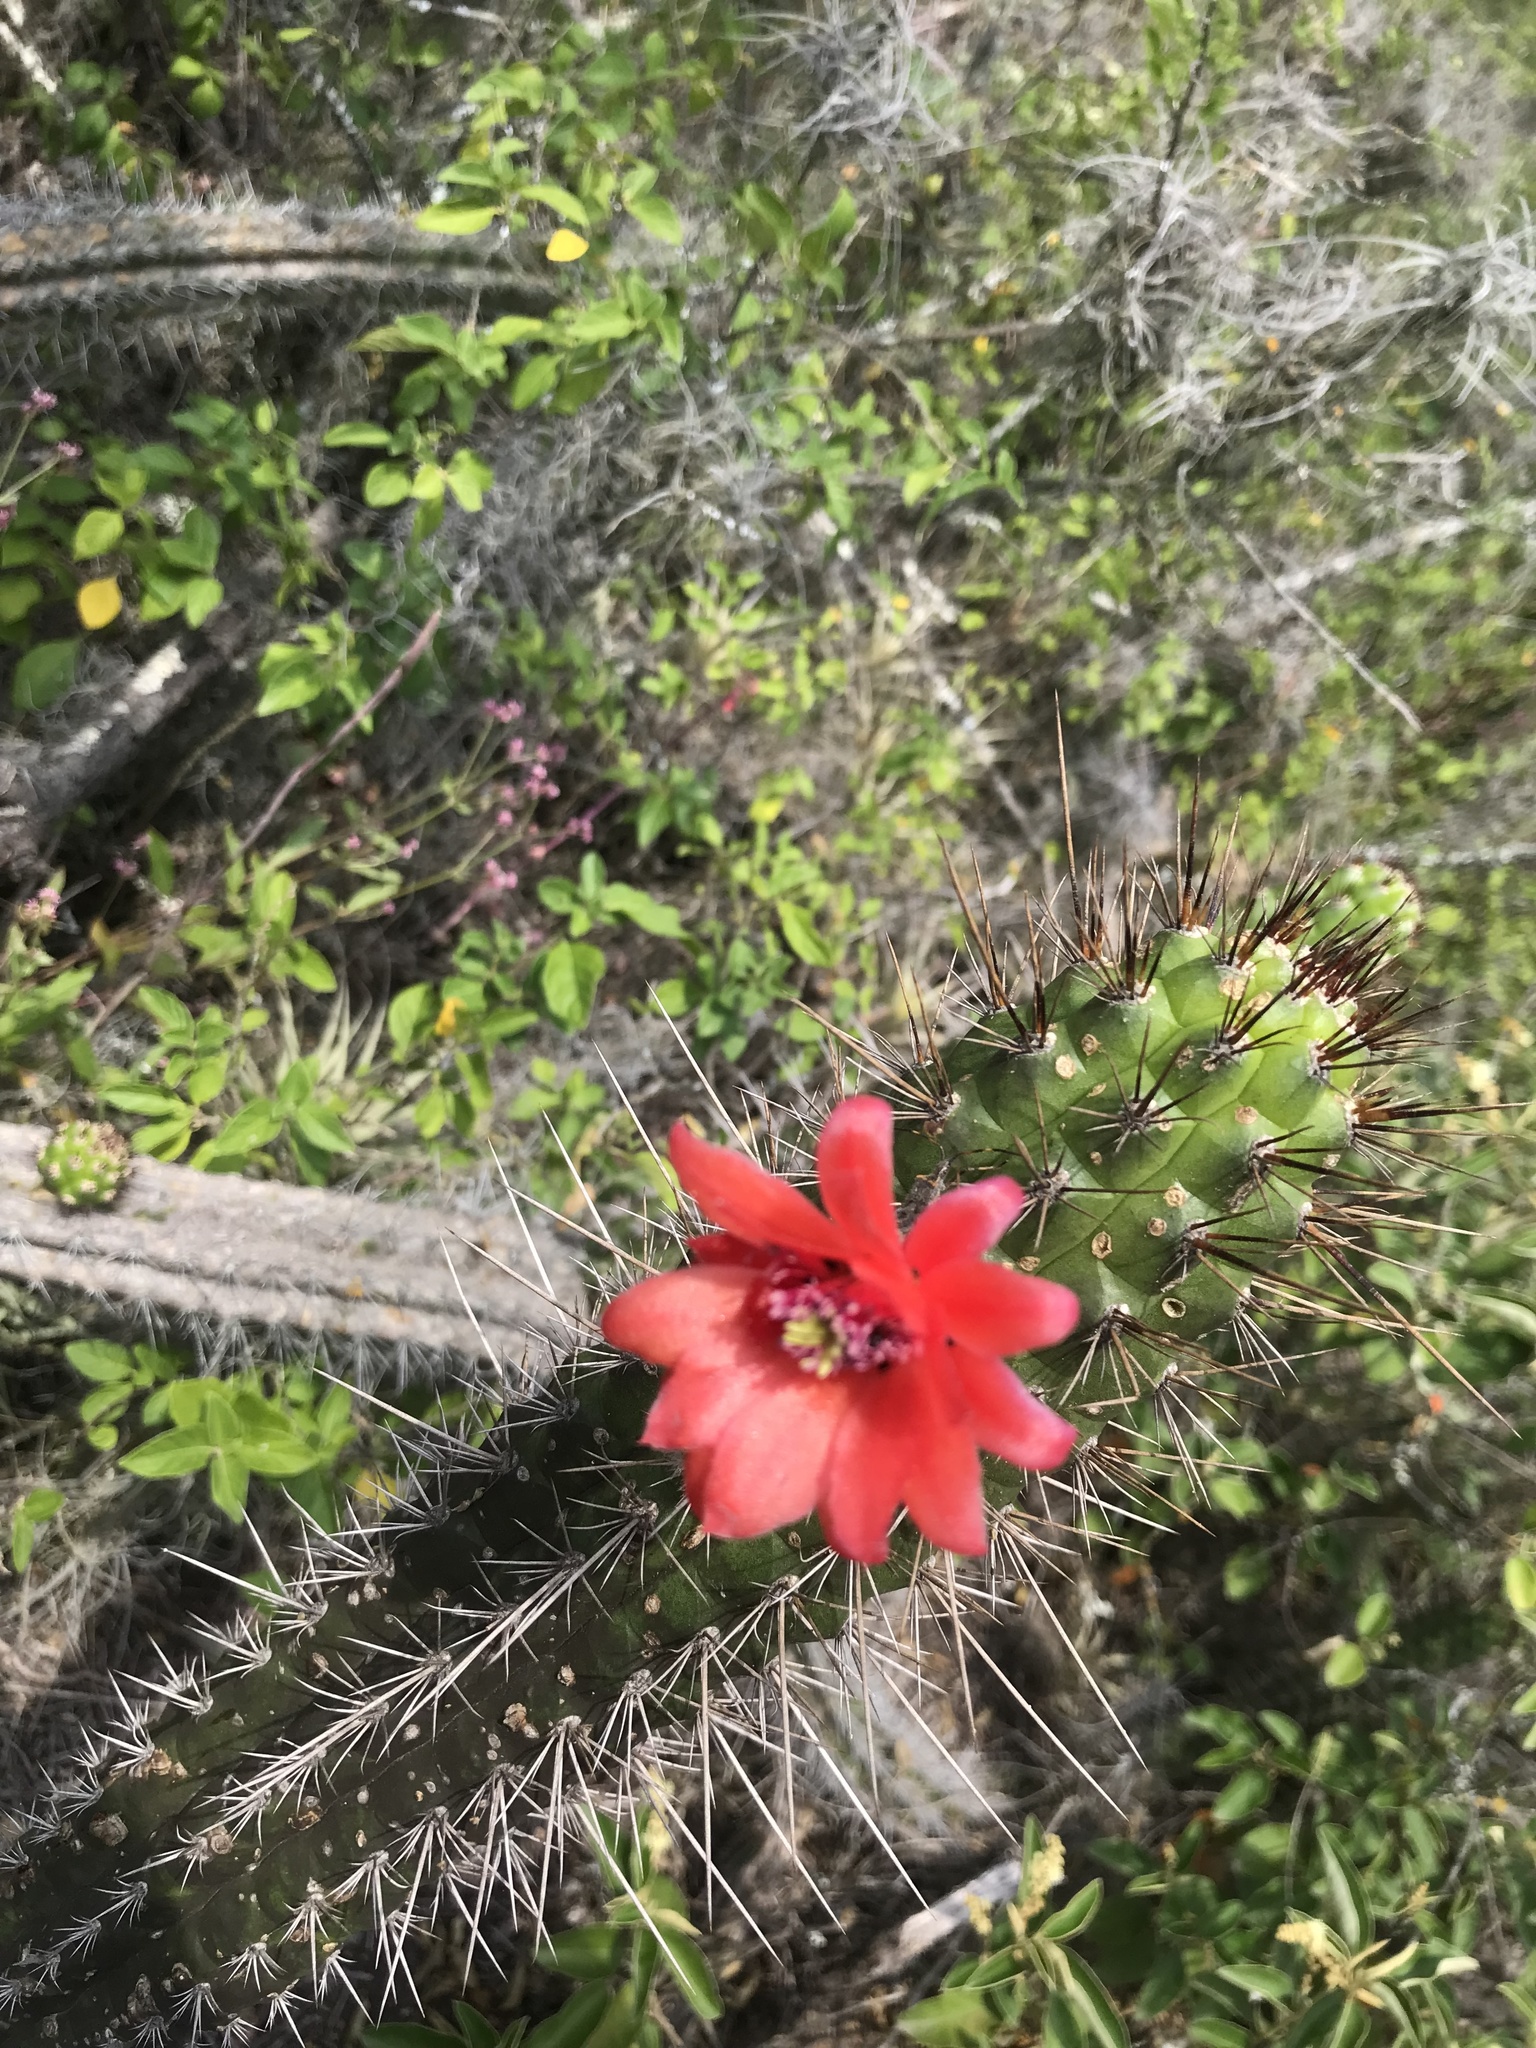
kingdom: Plantae
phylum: Tracheophyta
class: Magnoliopsida
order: Caryophyllales
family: Cactaceae
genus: Borzicactus
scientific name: Borzicactus sepium
